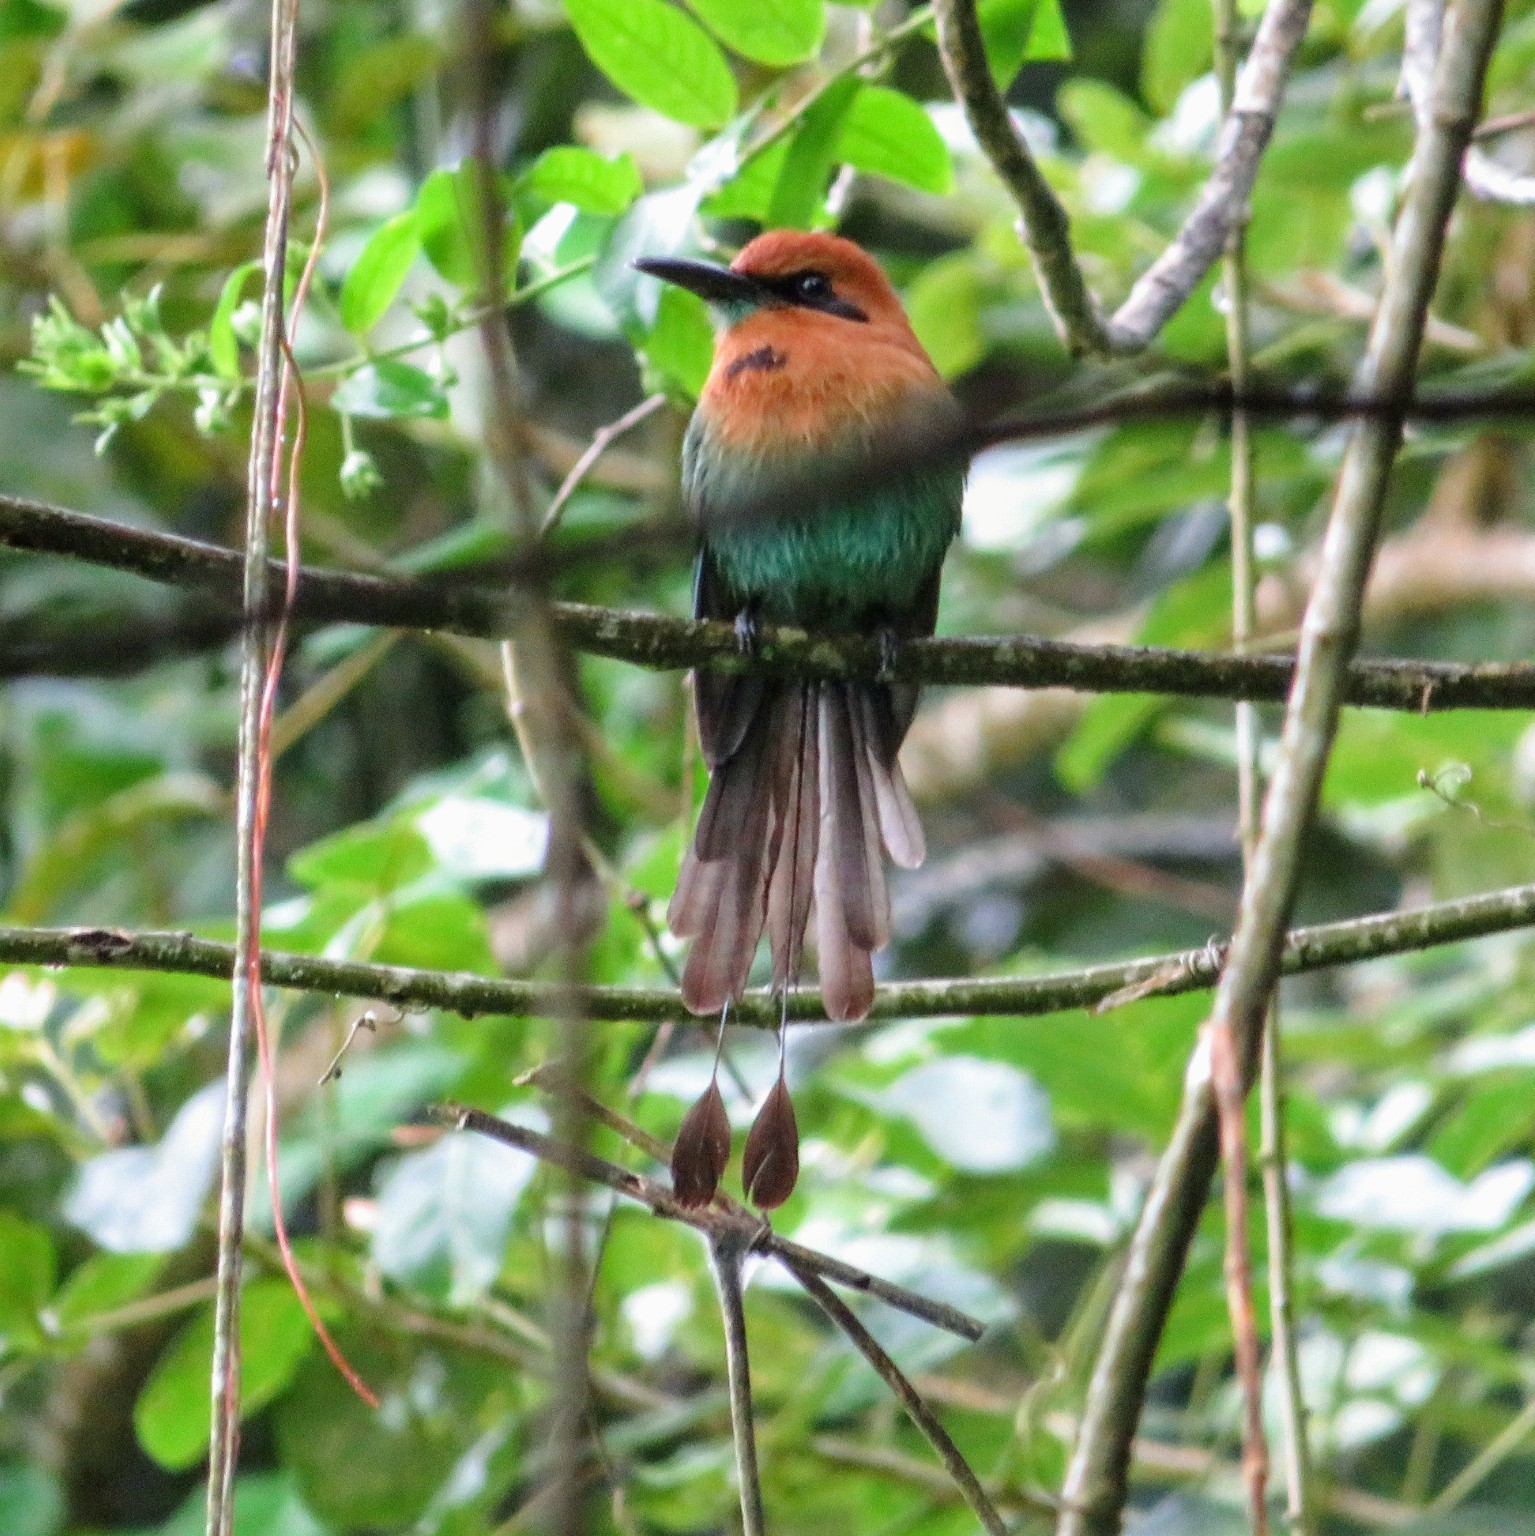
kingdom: Animalia
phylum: Chordata
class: Aves
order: Coraciiformes
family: Momotidae
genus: Electron
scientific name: Electron platyrhynchum
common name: Broad-billed motmot
